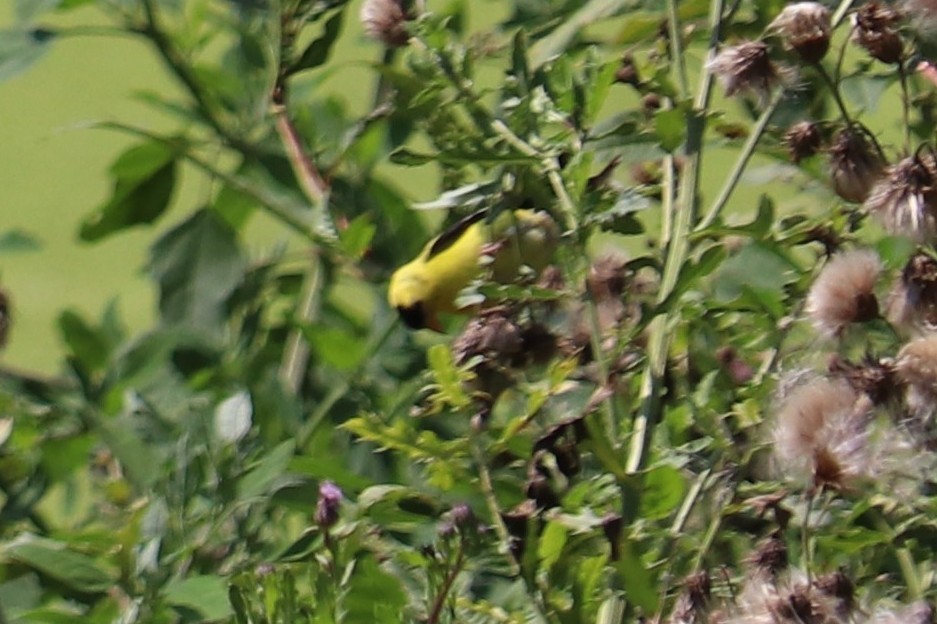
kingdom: Animalia
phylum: Chordata
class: Aves
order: Passeriformes
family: Fringillidae
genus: Spinus
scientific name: Spinus tristis
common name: American goldfinch
